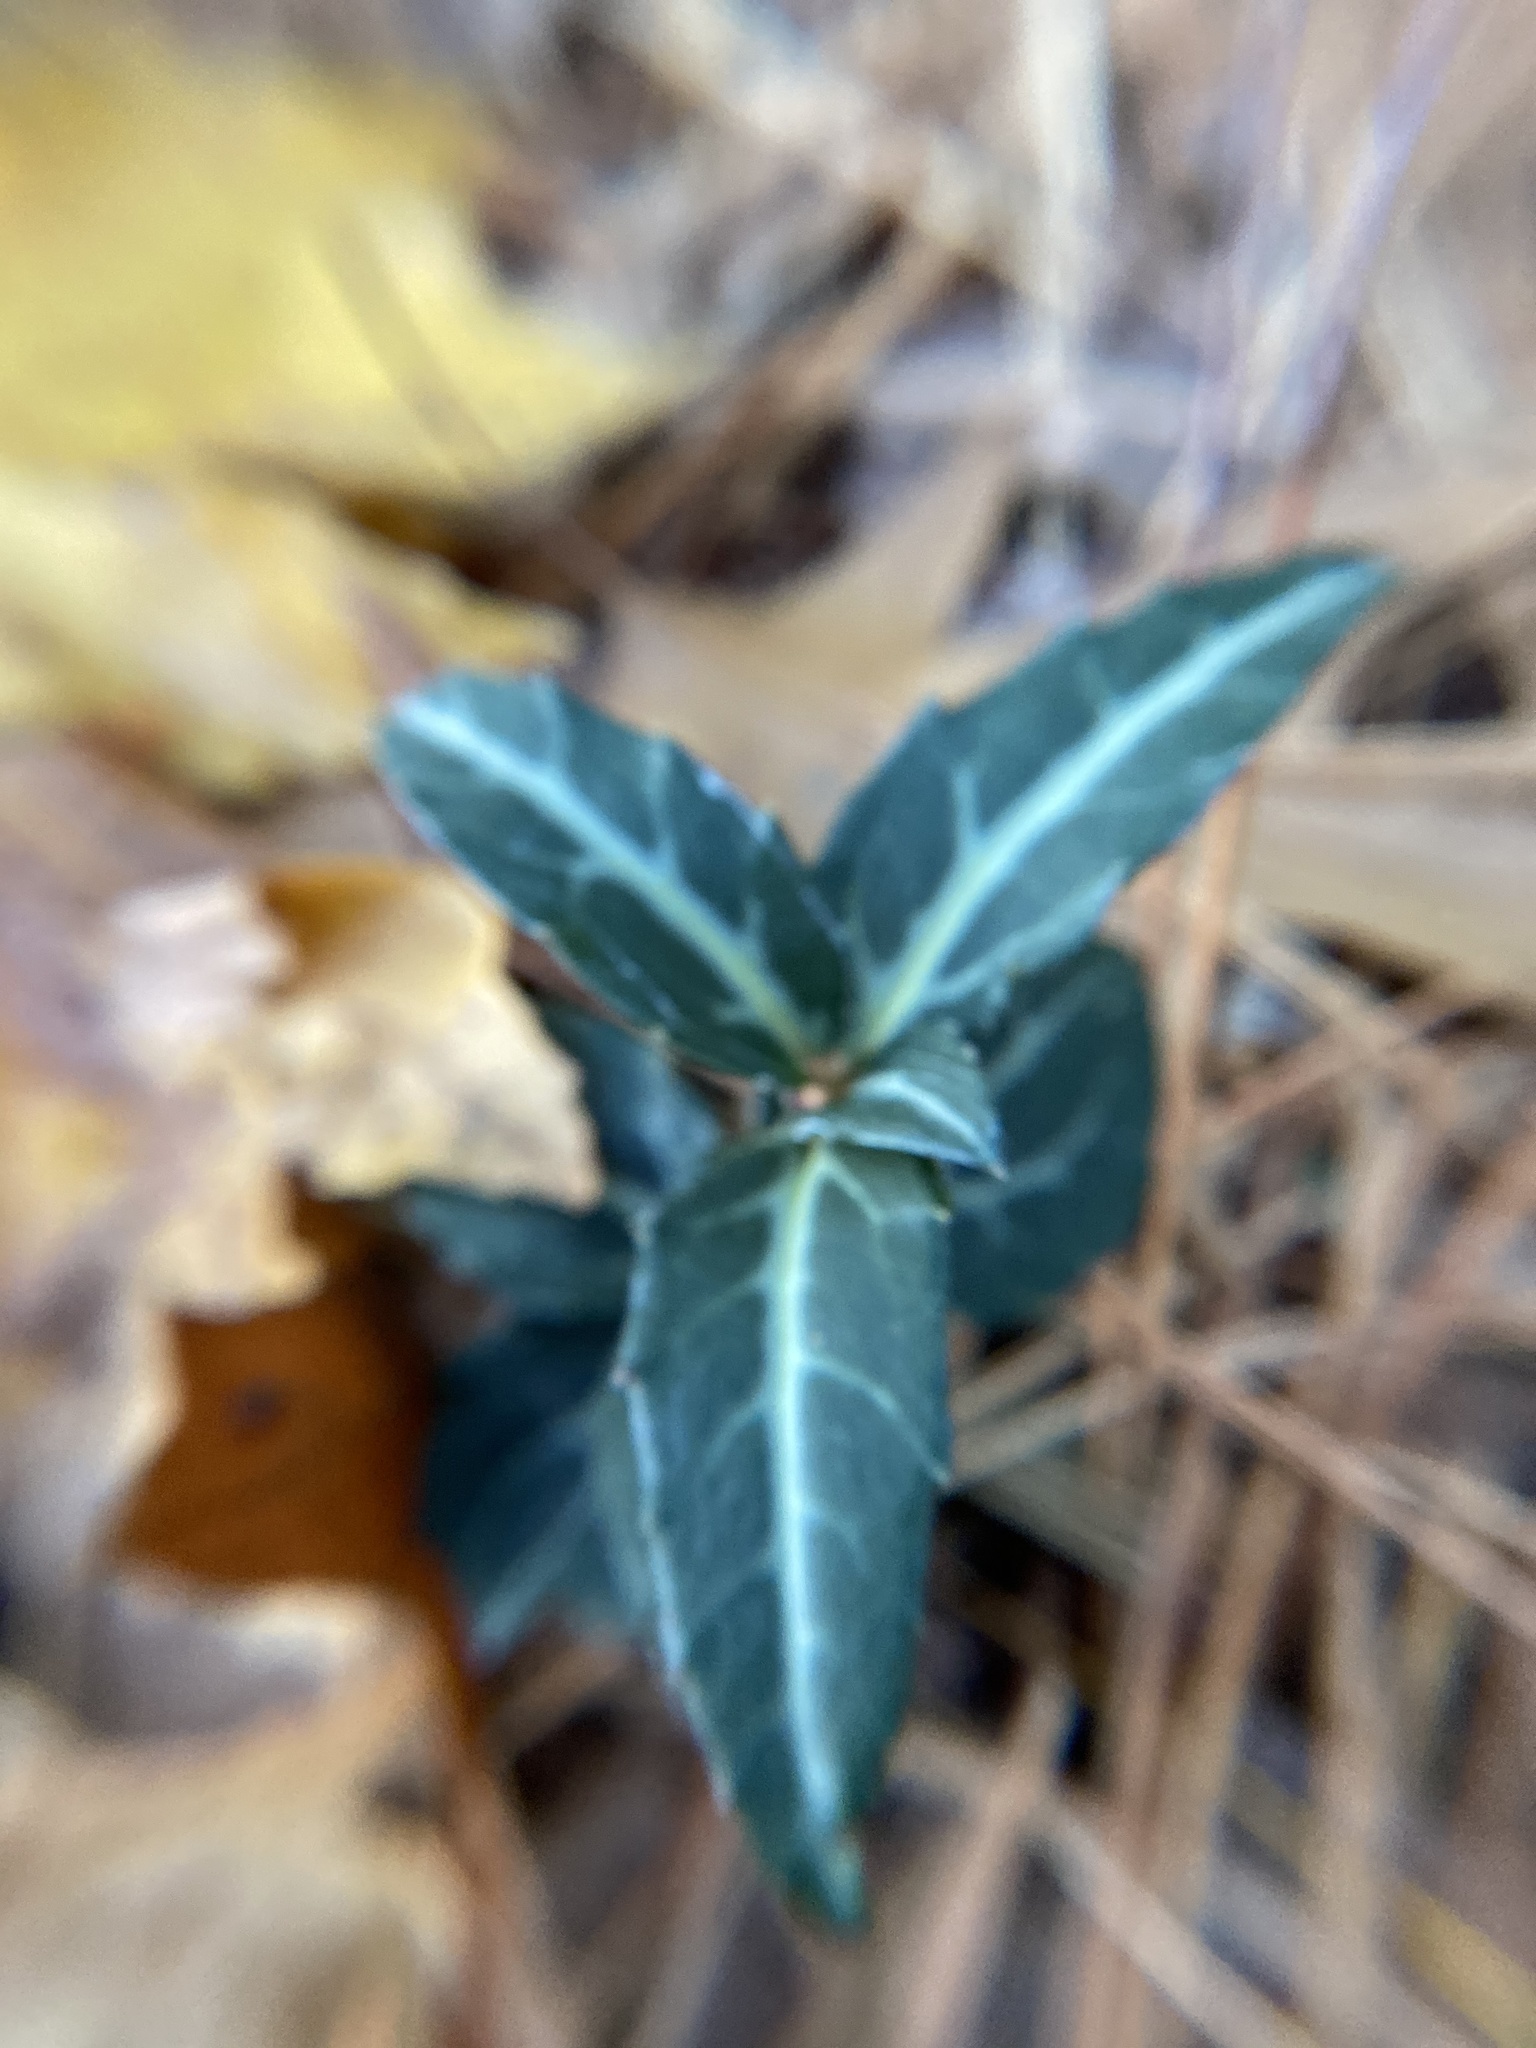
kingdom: Plantae
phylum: Tracheophyta
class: Magnoliopsida
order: Ericales
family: Ericaceae
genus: Chimaphila
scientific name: Chimaphila maculata
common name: Spotted pipsissewa
